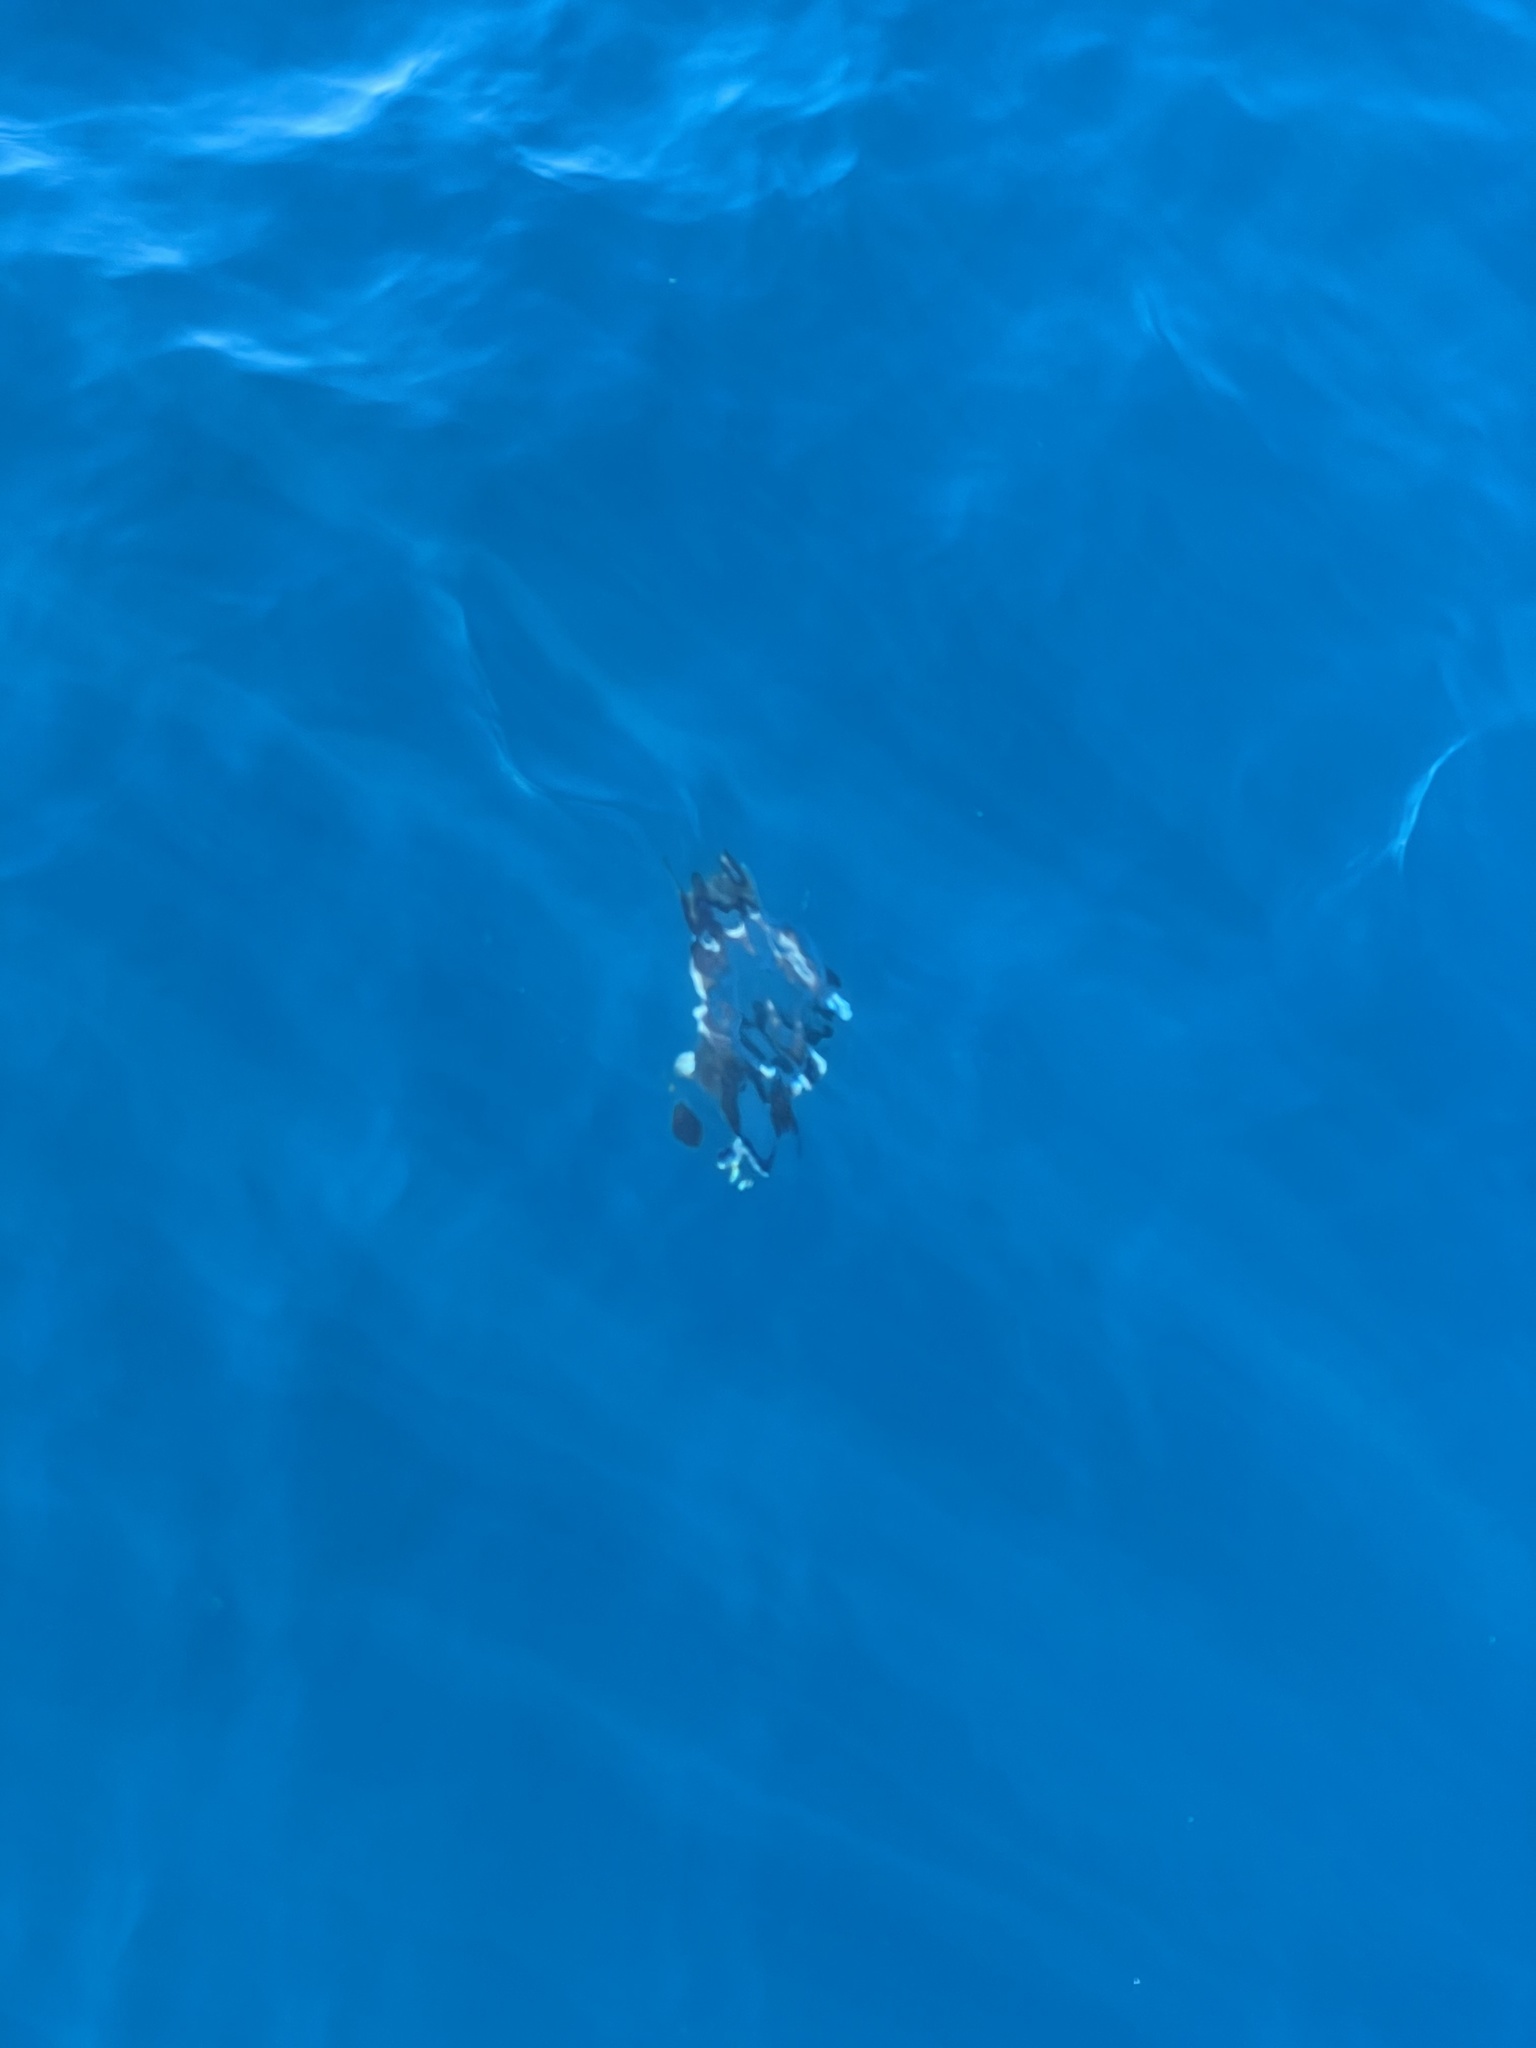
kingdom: Animalia
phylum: Chordata
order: Tetraodontiformes
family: Molidae
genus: Mola
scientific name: Mola mola
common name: Ocean sunfish
